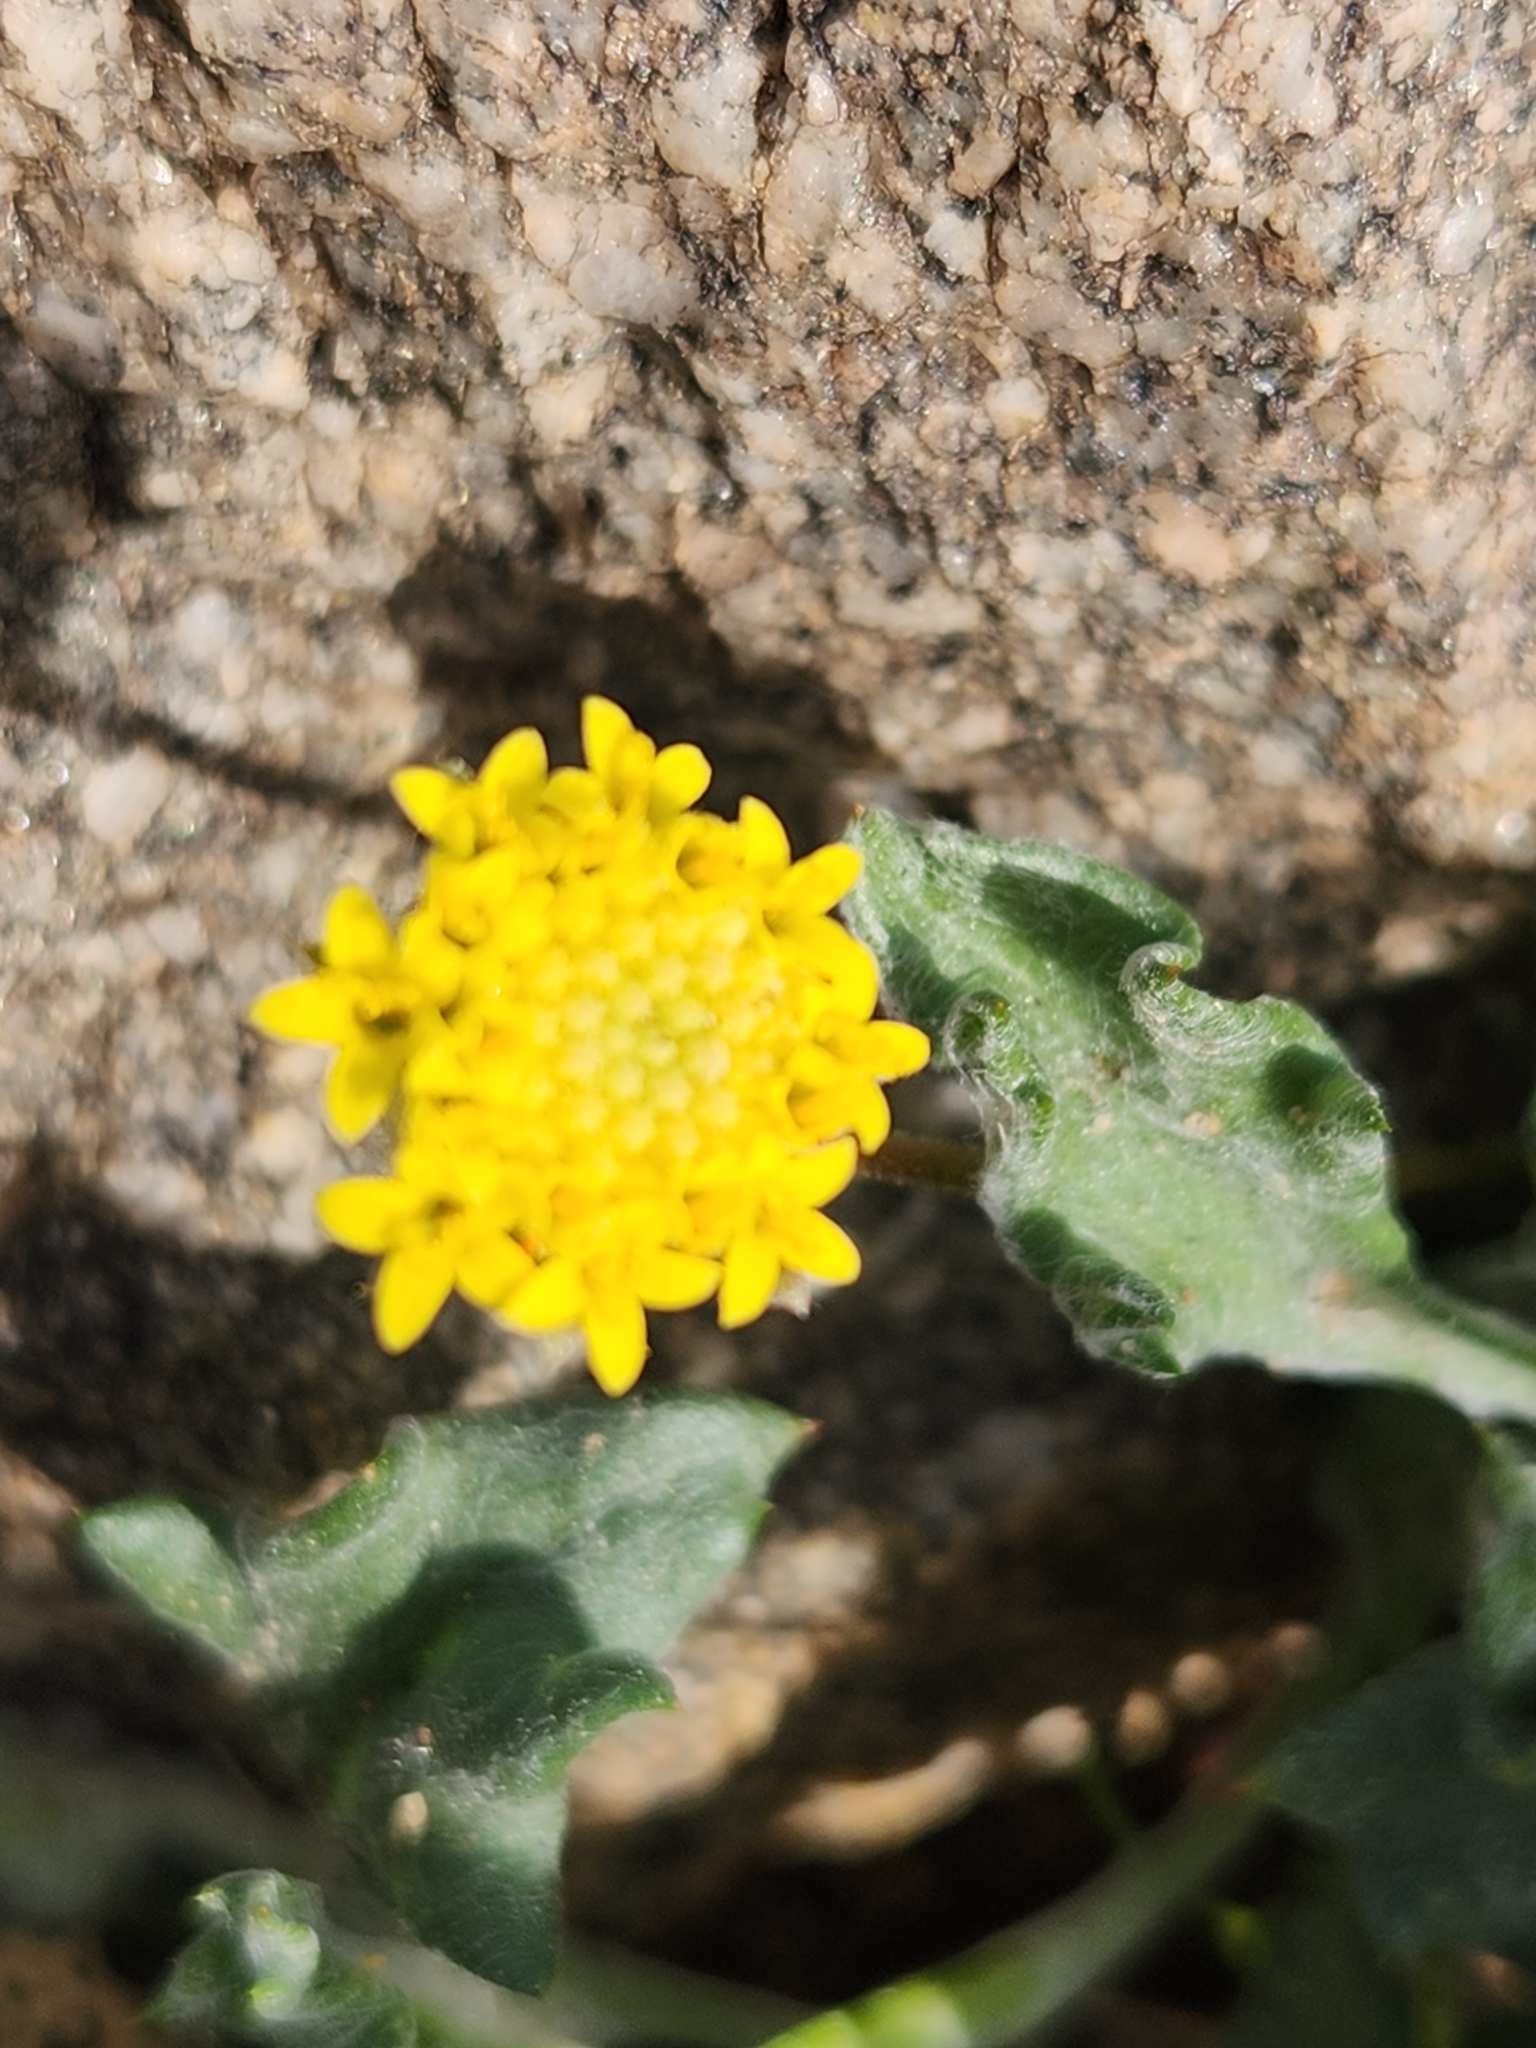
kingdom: Plantae
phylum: Tracheophyta
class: Magnoliopsida
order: Asterales
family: Asteraceae
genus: Trichoptilium
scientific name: Trichoptilium incisum
